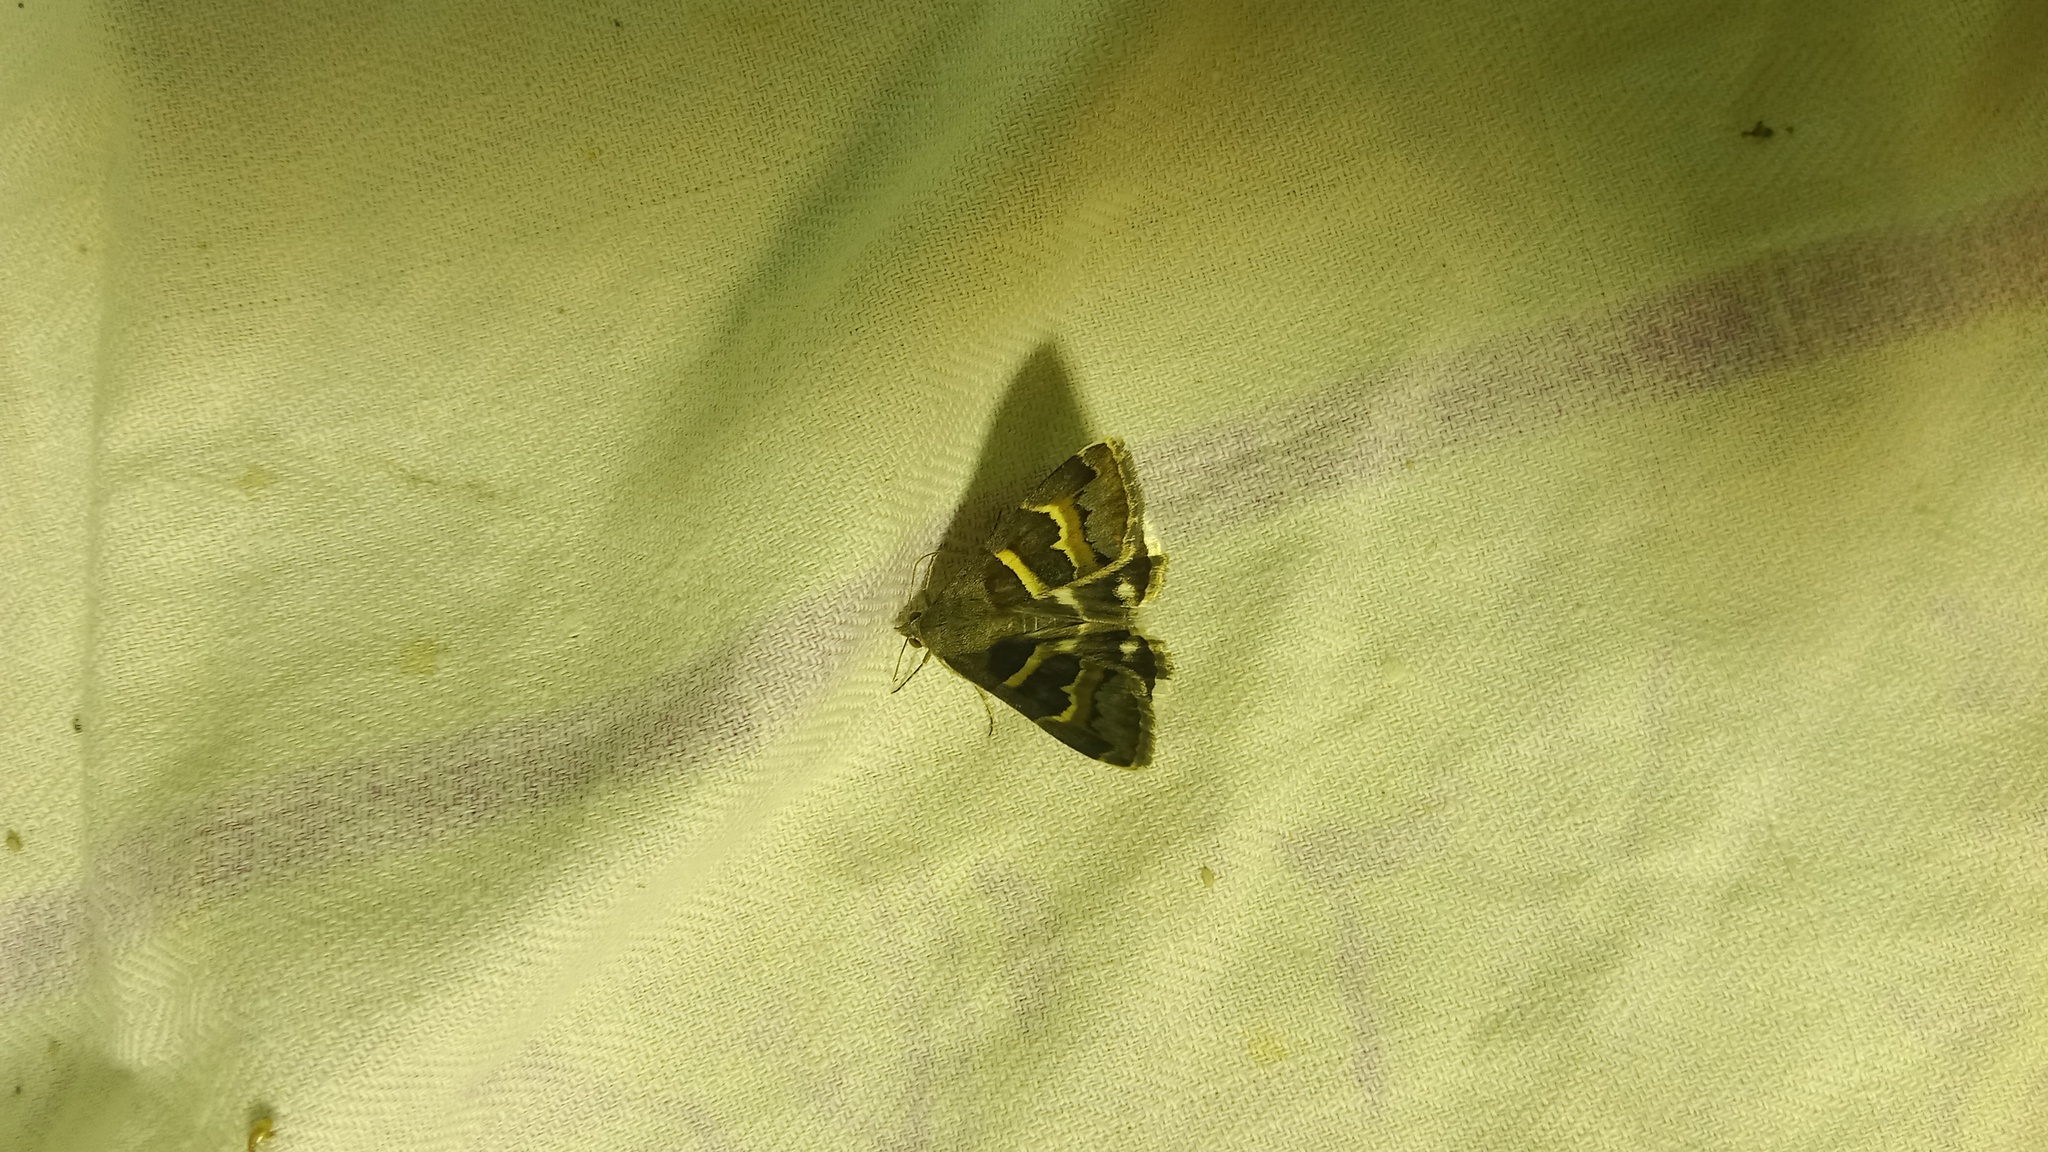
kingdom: Animalia
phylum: Arthropoda
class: Insecta
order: Lepidoptera
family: Erebidae
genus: Grammodes
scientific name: Grammodes stolida
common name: Geometrician
